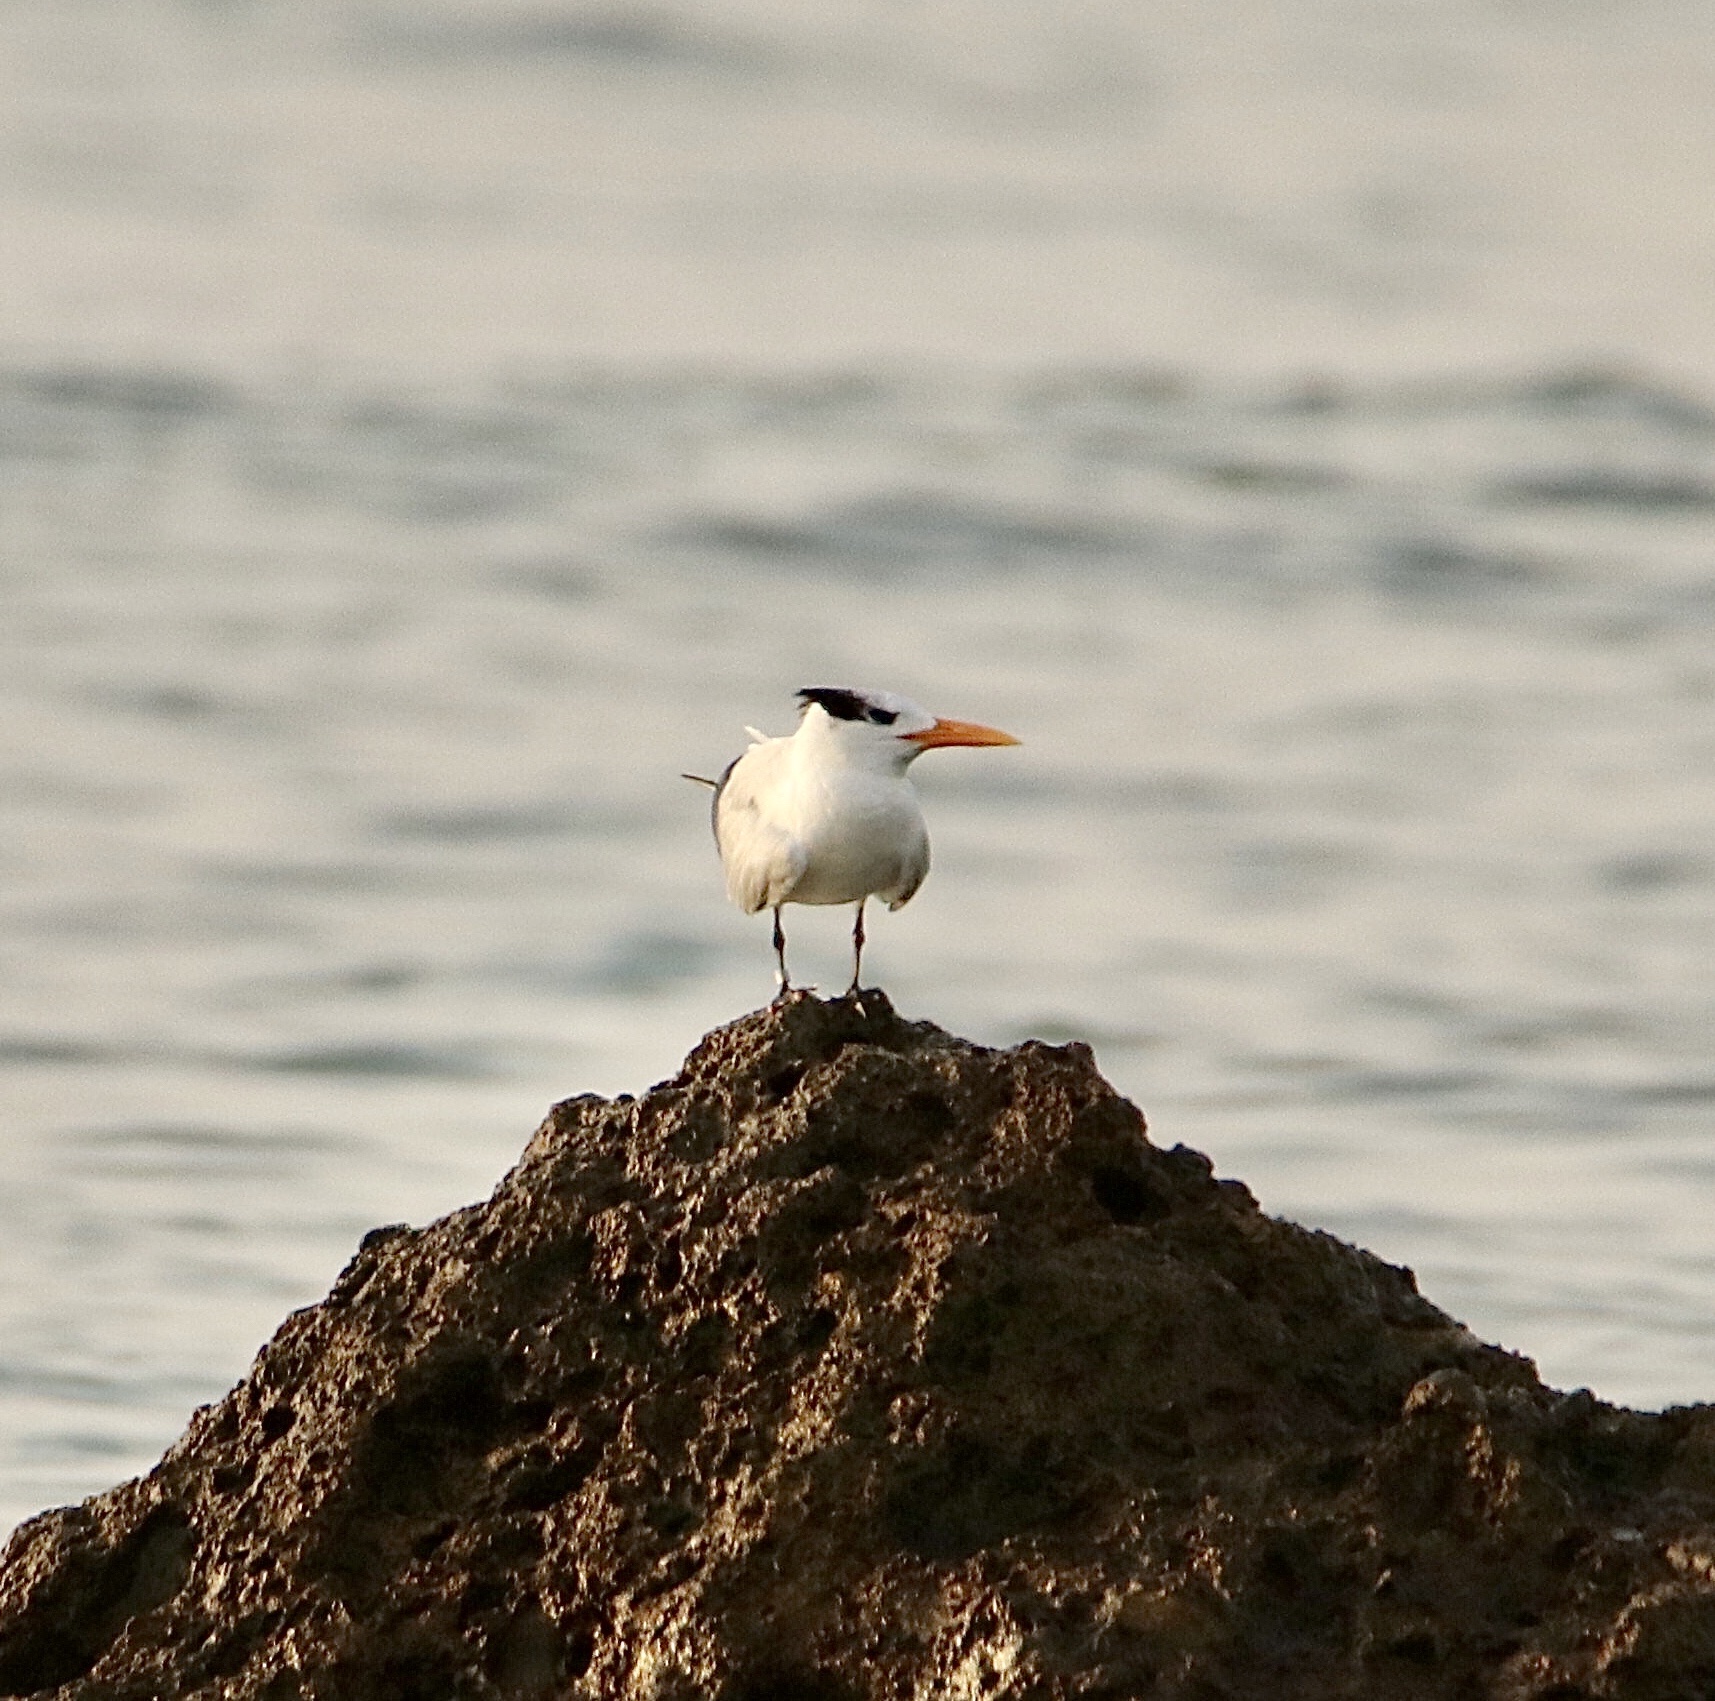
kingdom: Animalia
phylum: Chordata
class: Aves
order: Charadriiformes
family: Laridae
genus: Thalasseus
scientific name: Thalasseus maximus
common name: Royal tern
